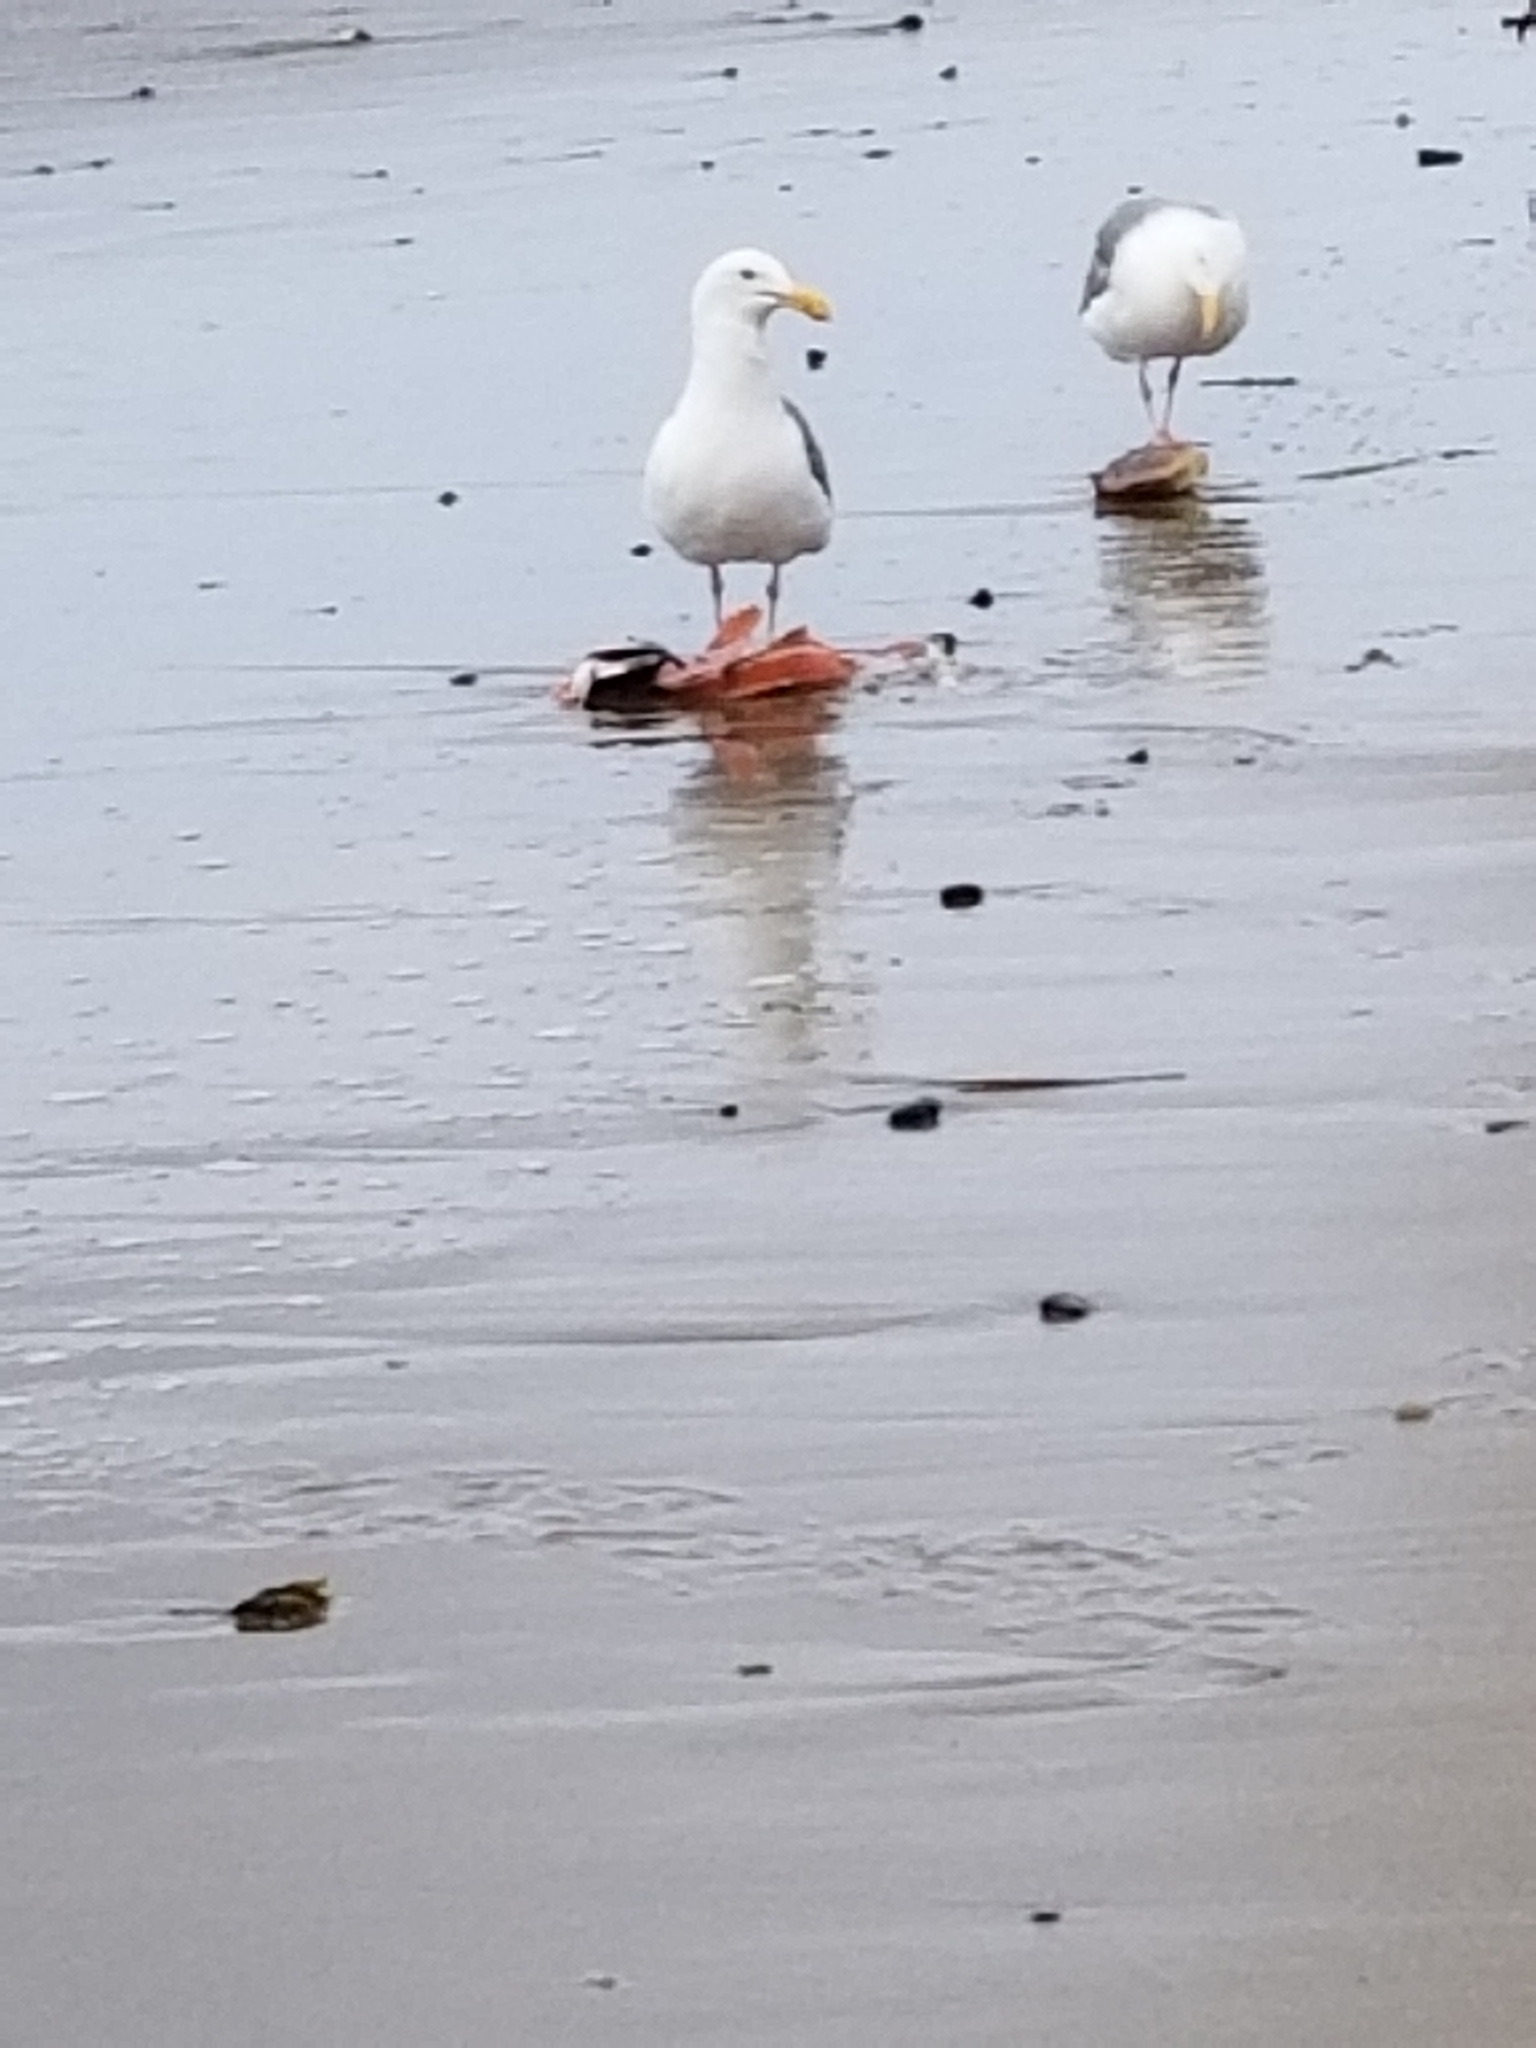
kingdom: Animalia
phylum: Chordata
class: Aves
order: Charadriiformes
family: Laridae
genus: Larus
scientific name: Larus occidentalis
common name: Western gull
